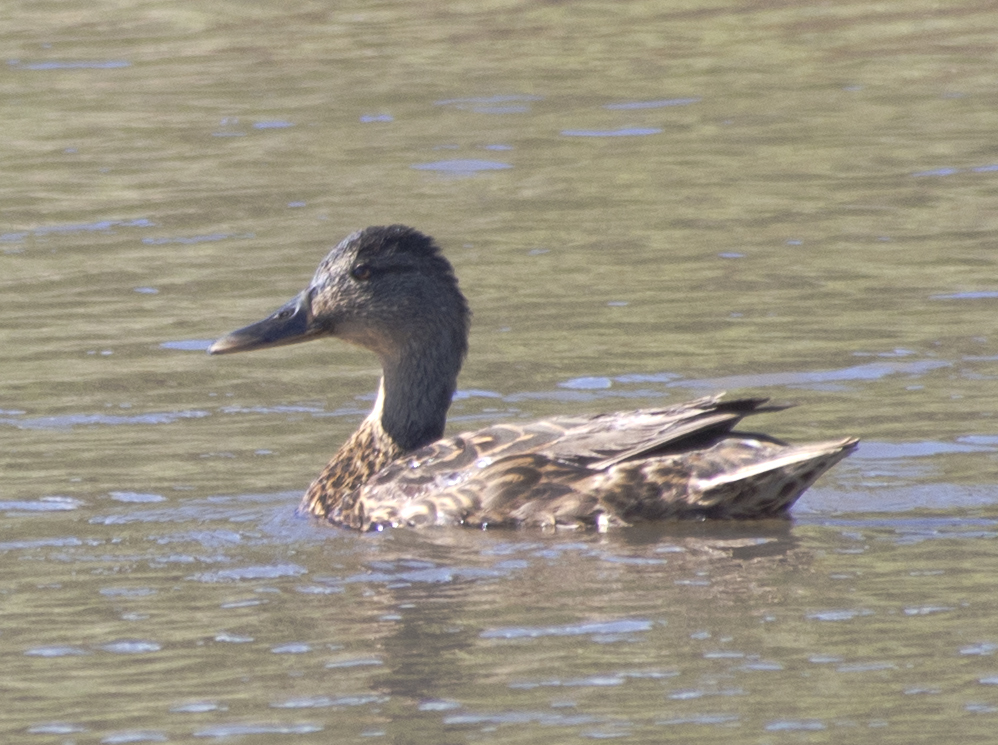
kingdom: Animalia
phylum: Chordata
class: Aves
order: Anseriformes
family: Anatidae
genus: Anas
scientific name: Anas platyrhynchos
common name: Mallard
